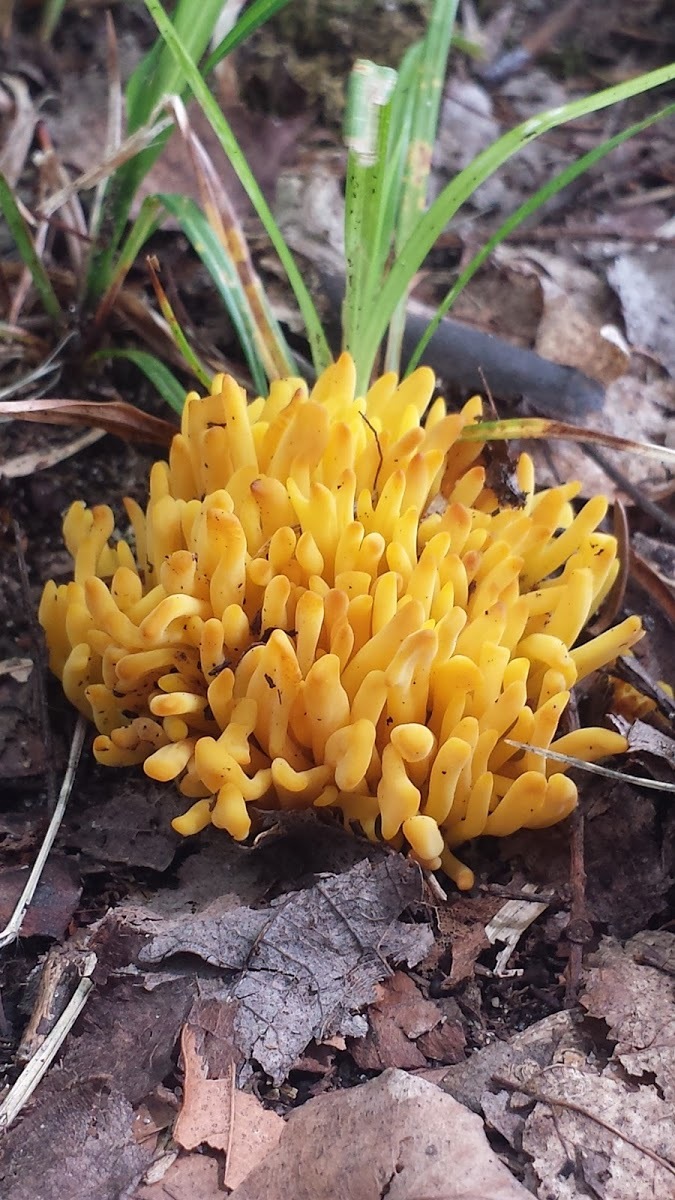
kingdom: Fungi
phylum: Basidiomycota
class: Agaricomycetes
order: Agaricales
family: Clavariaceae
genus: Clavulinopsis
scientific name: Clavulinopsis fusiformis
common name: Golden spindles
